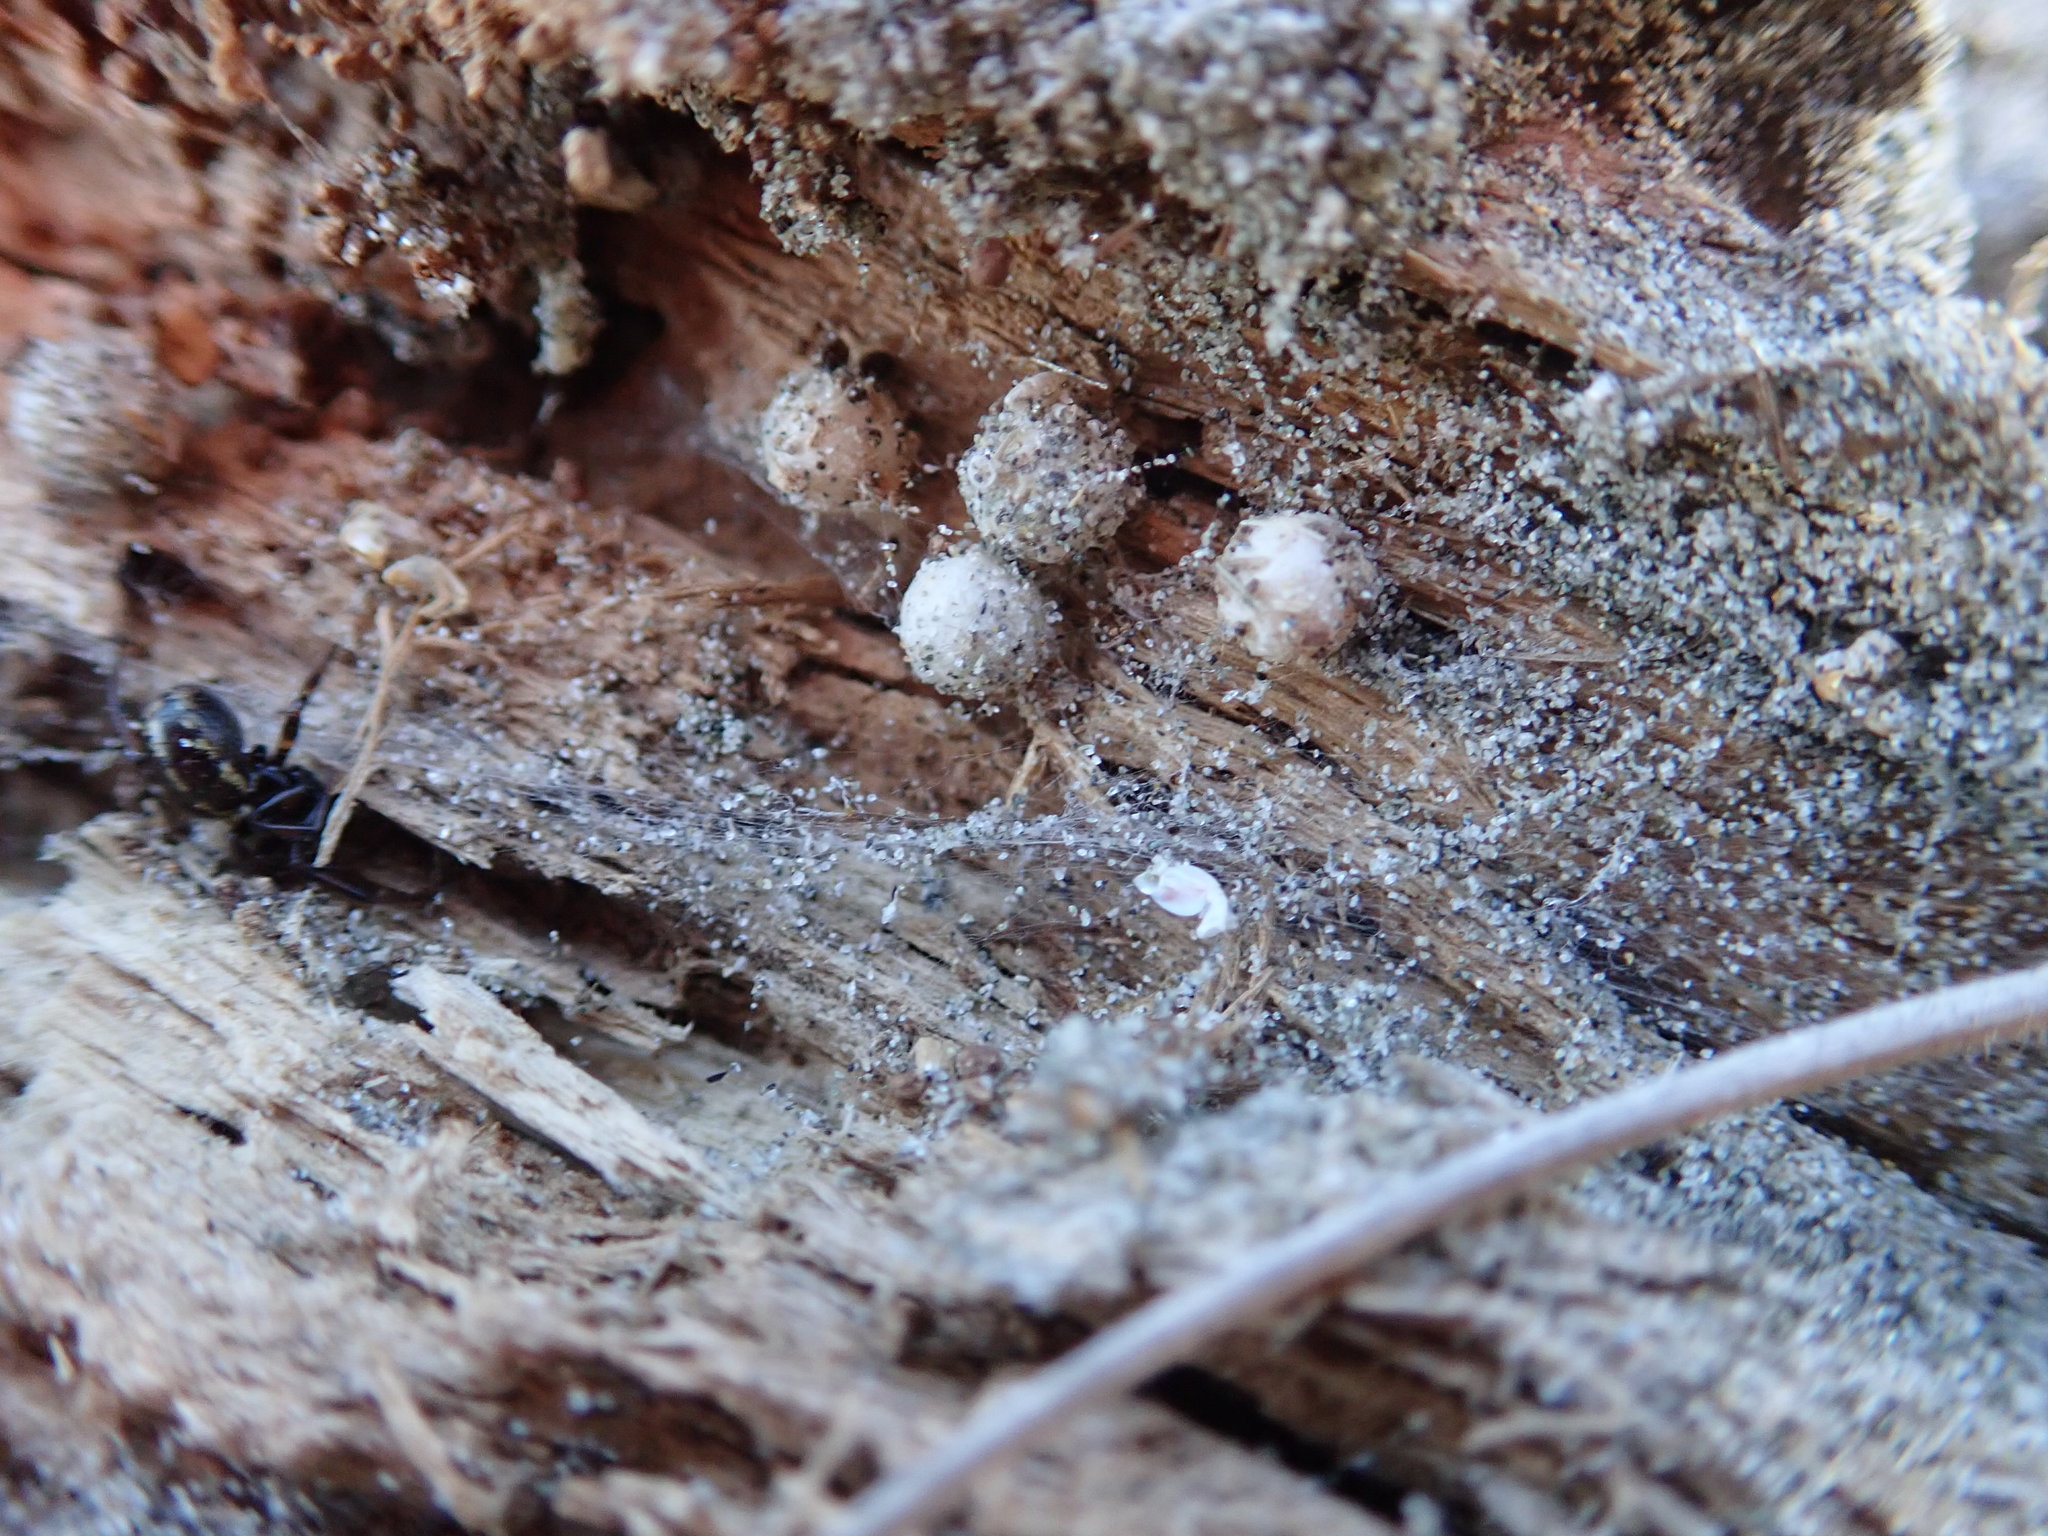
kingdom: Animalia
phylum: Arthropoda
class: Arachnida
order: Araneae
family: Theridiidae
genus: Steatoda
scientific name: Steatoda lepida
